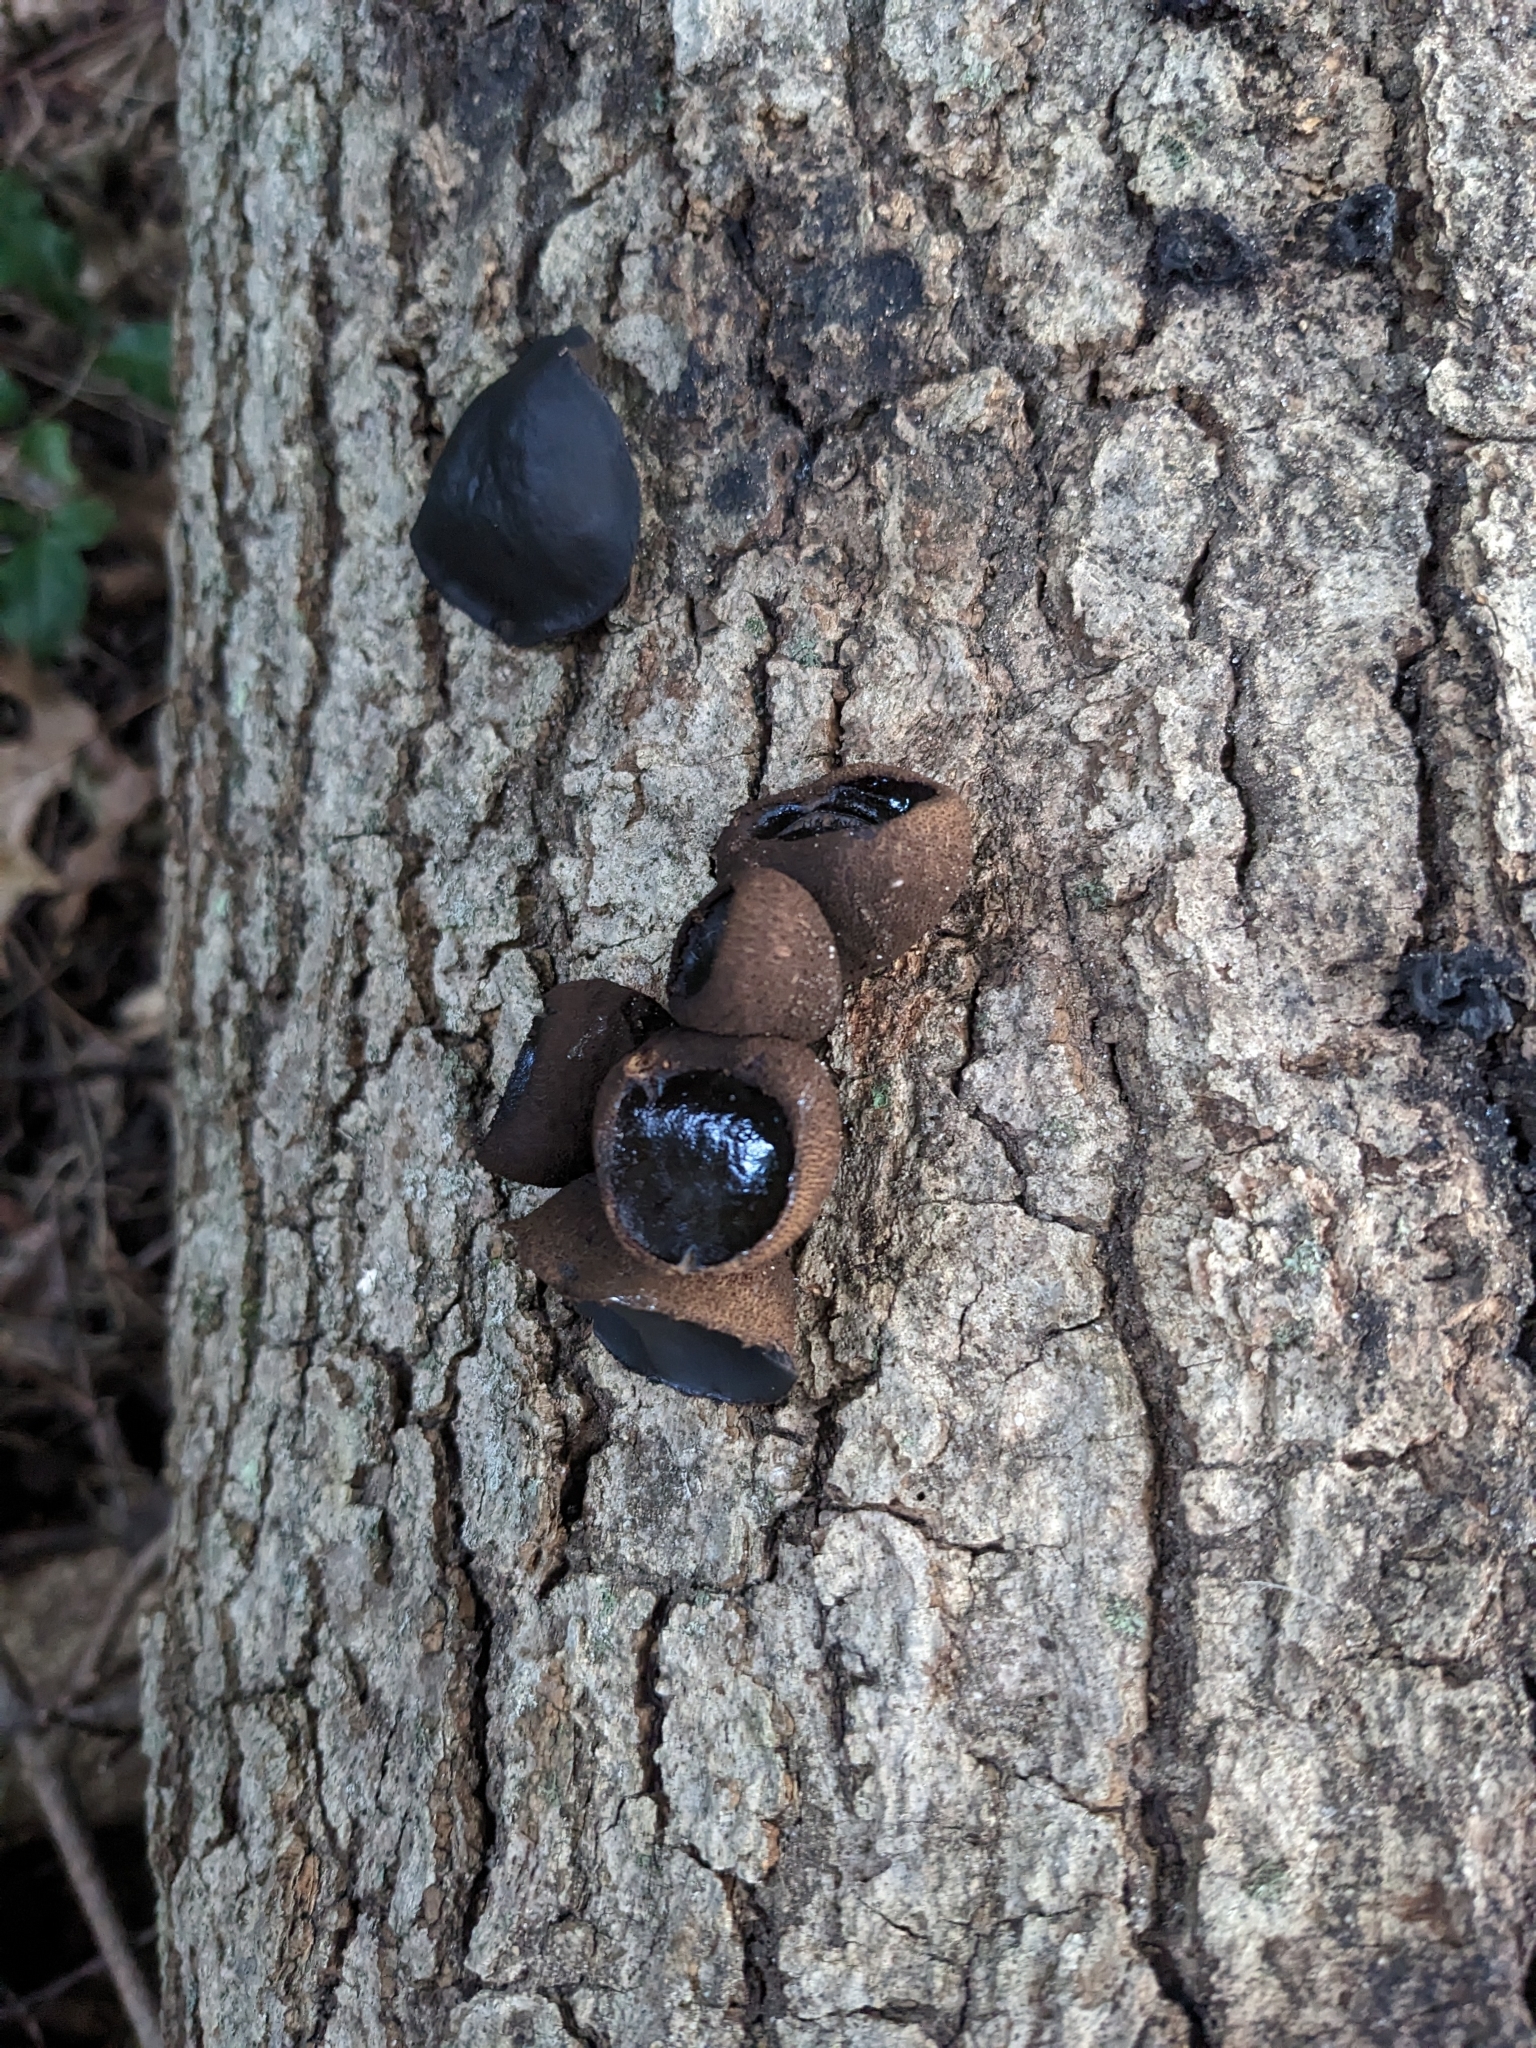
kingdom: Fungi
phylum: Ascomycota
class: Leotiomycetes
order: Phacidiales
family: Phacidiaceae
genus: Bulgaria
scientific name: Bulgaria inquinans
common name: Black bulgar
